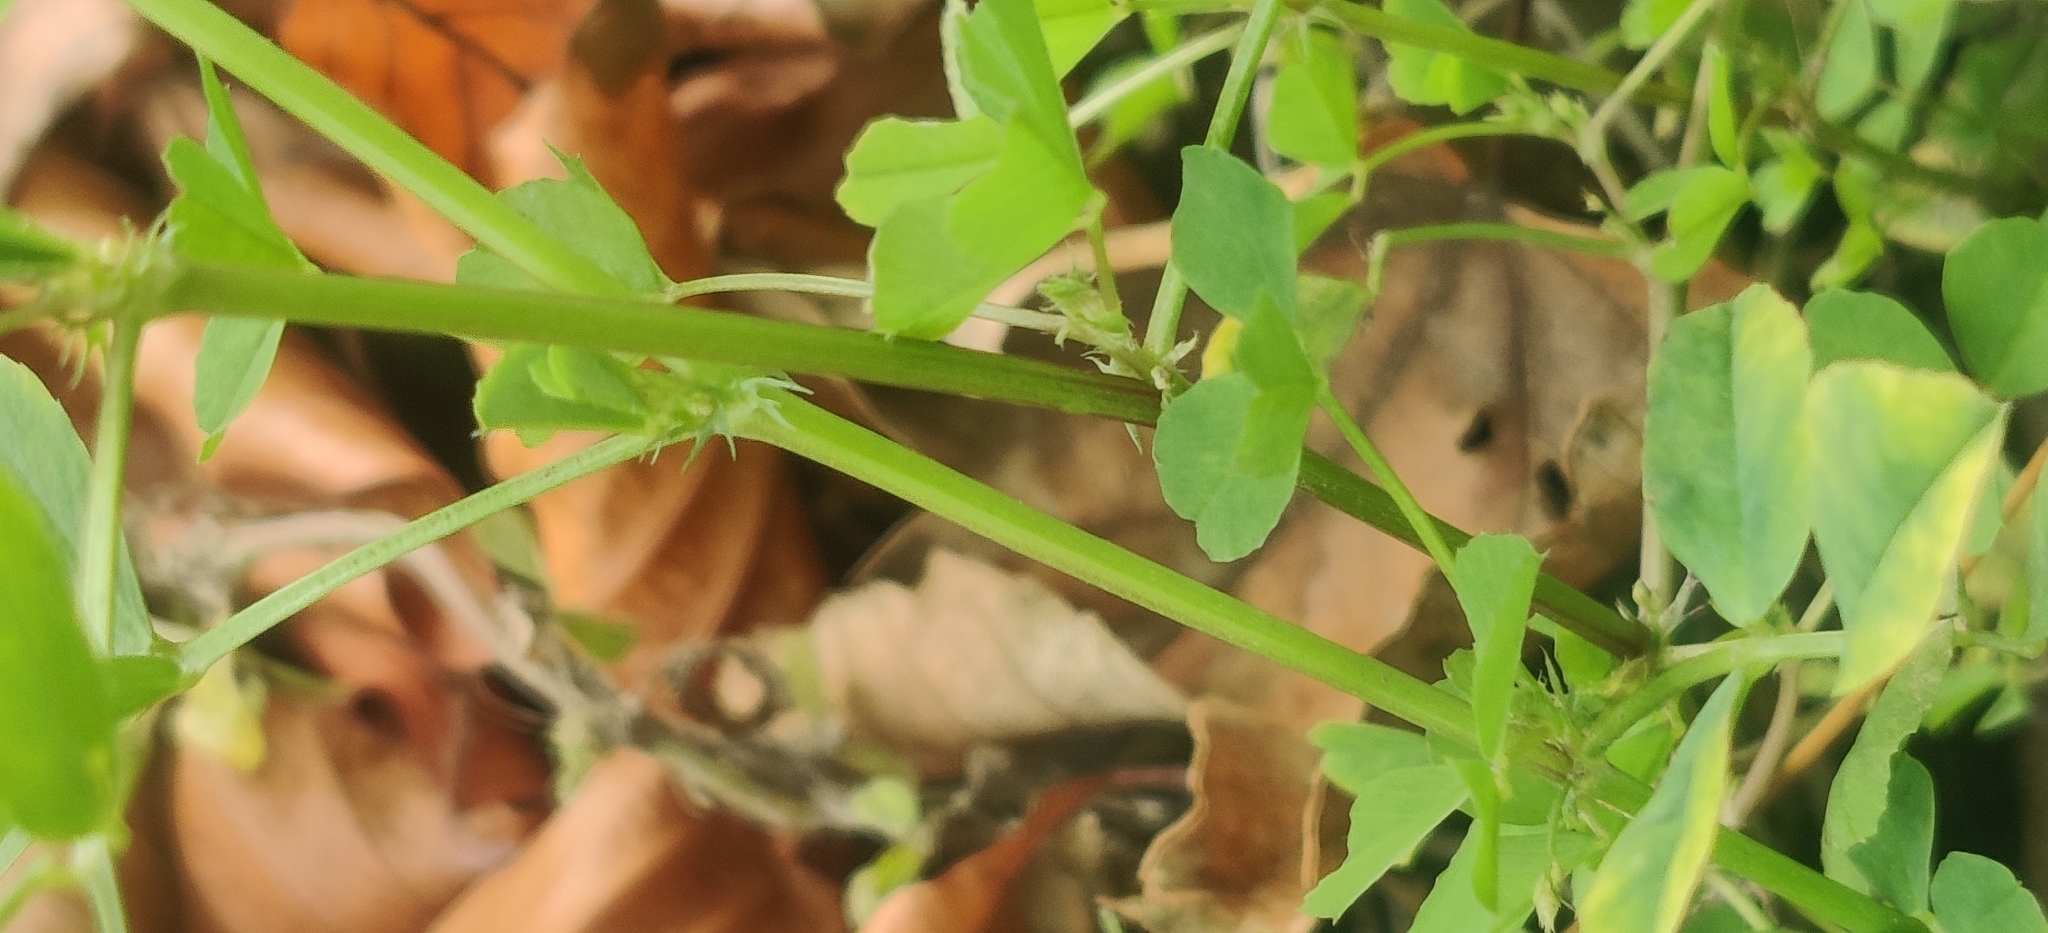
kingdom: Plantae
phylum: Tracheophyta
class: Magnoliopsida
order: Fabales
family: Fabaceae
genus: Medicago
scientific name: Medicago polymorpha
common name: Burclover
